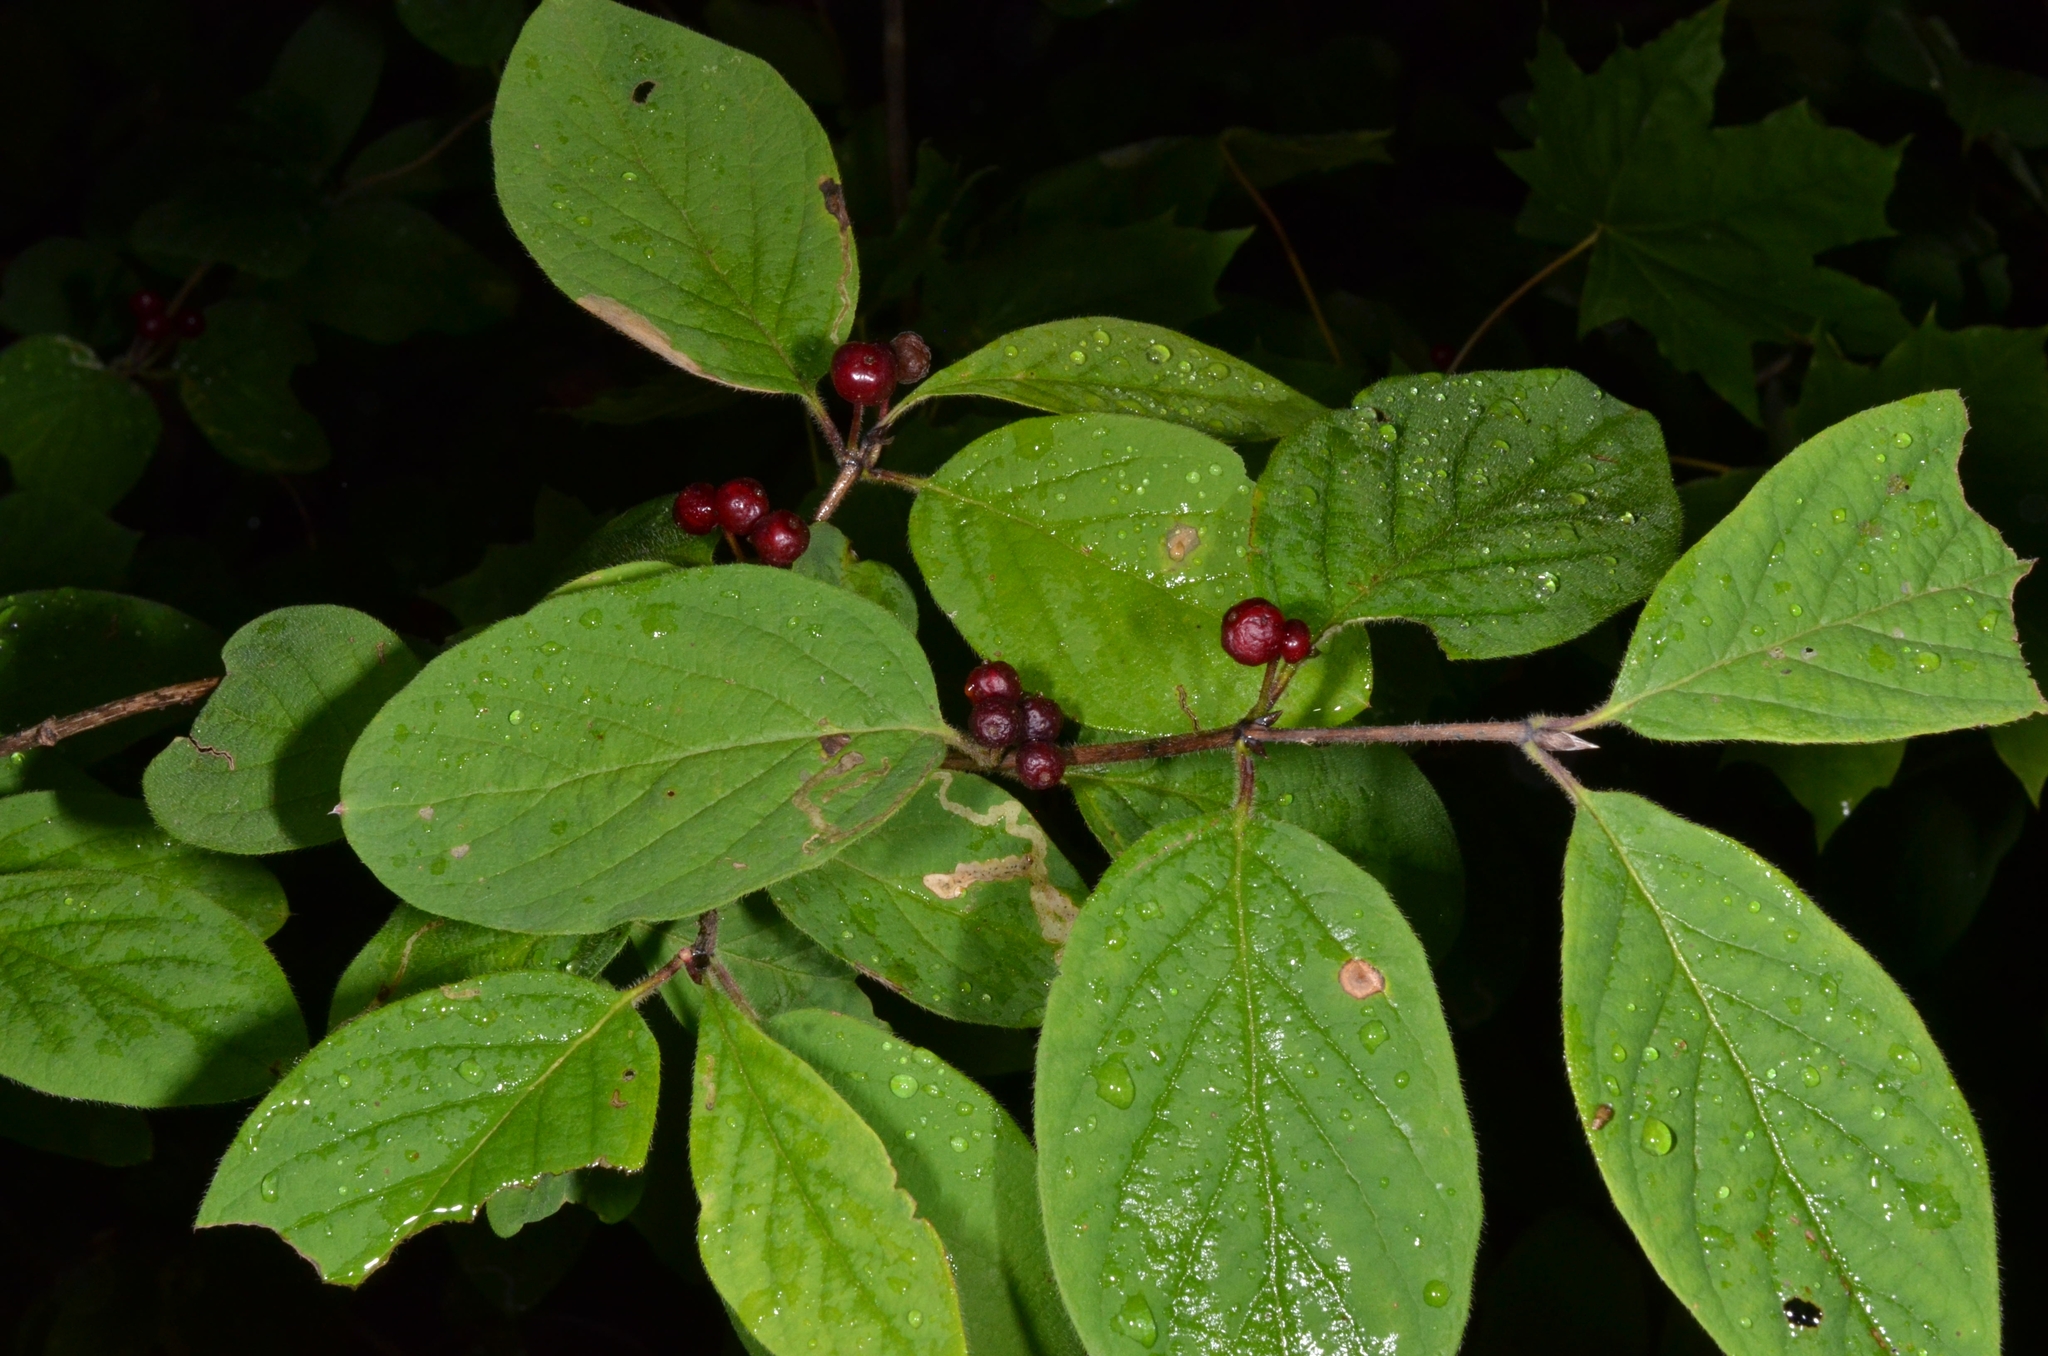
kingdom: Plantae
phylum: Tracheophyta
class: Magnoliopsida
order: Dipsacales
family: Caprifoliaceae
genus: Lonicera
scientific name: Lonicera xylosteum
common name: Fly honeysuckle
